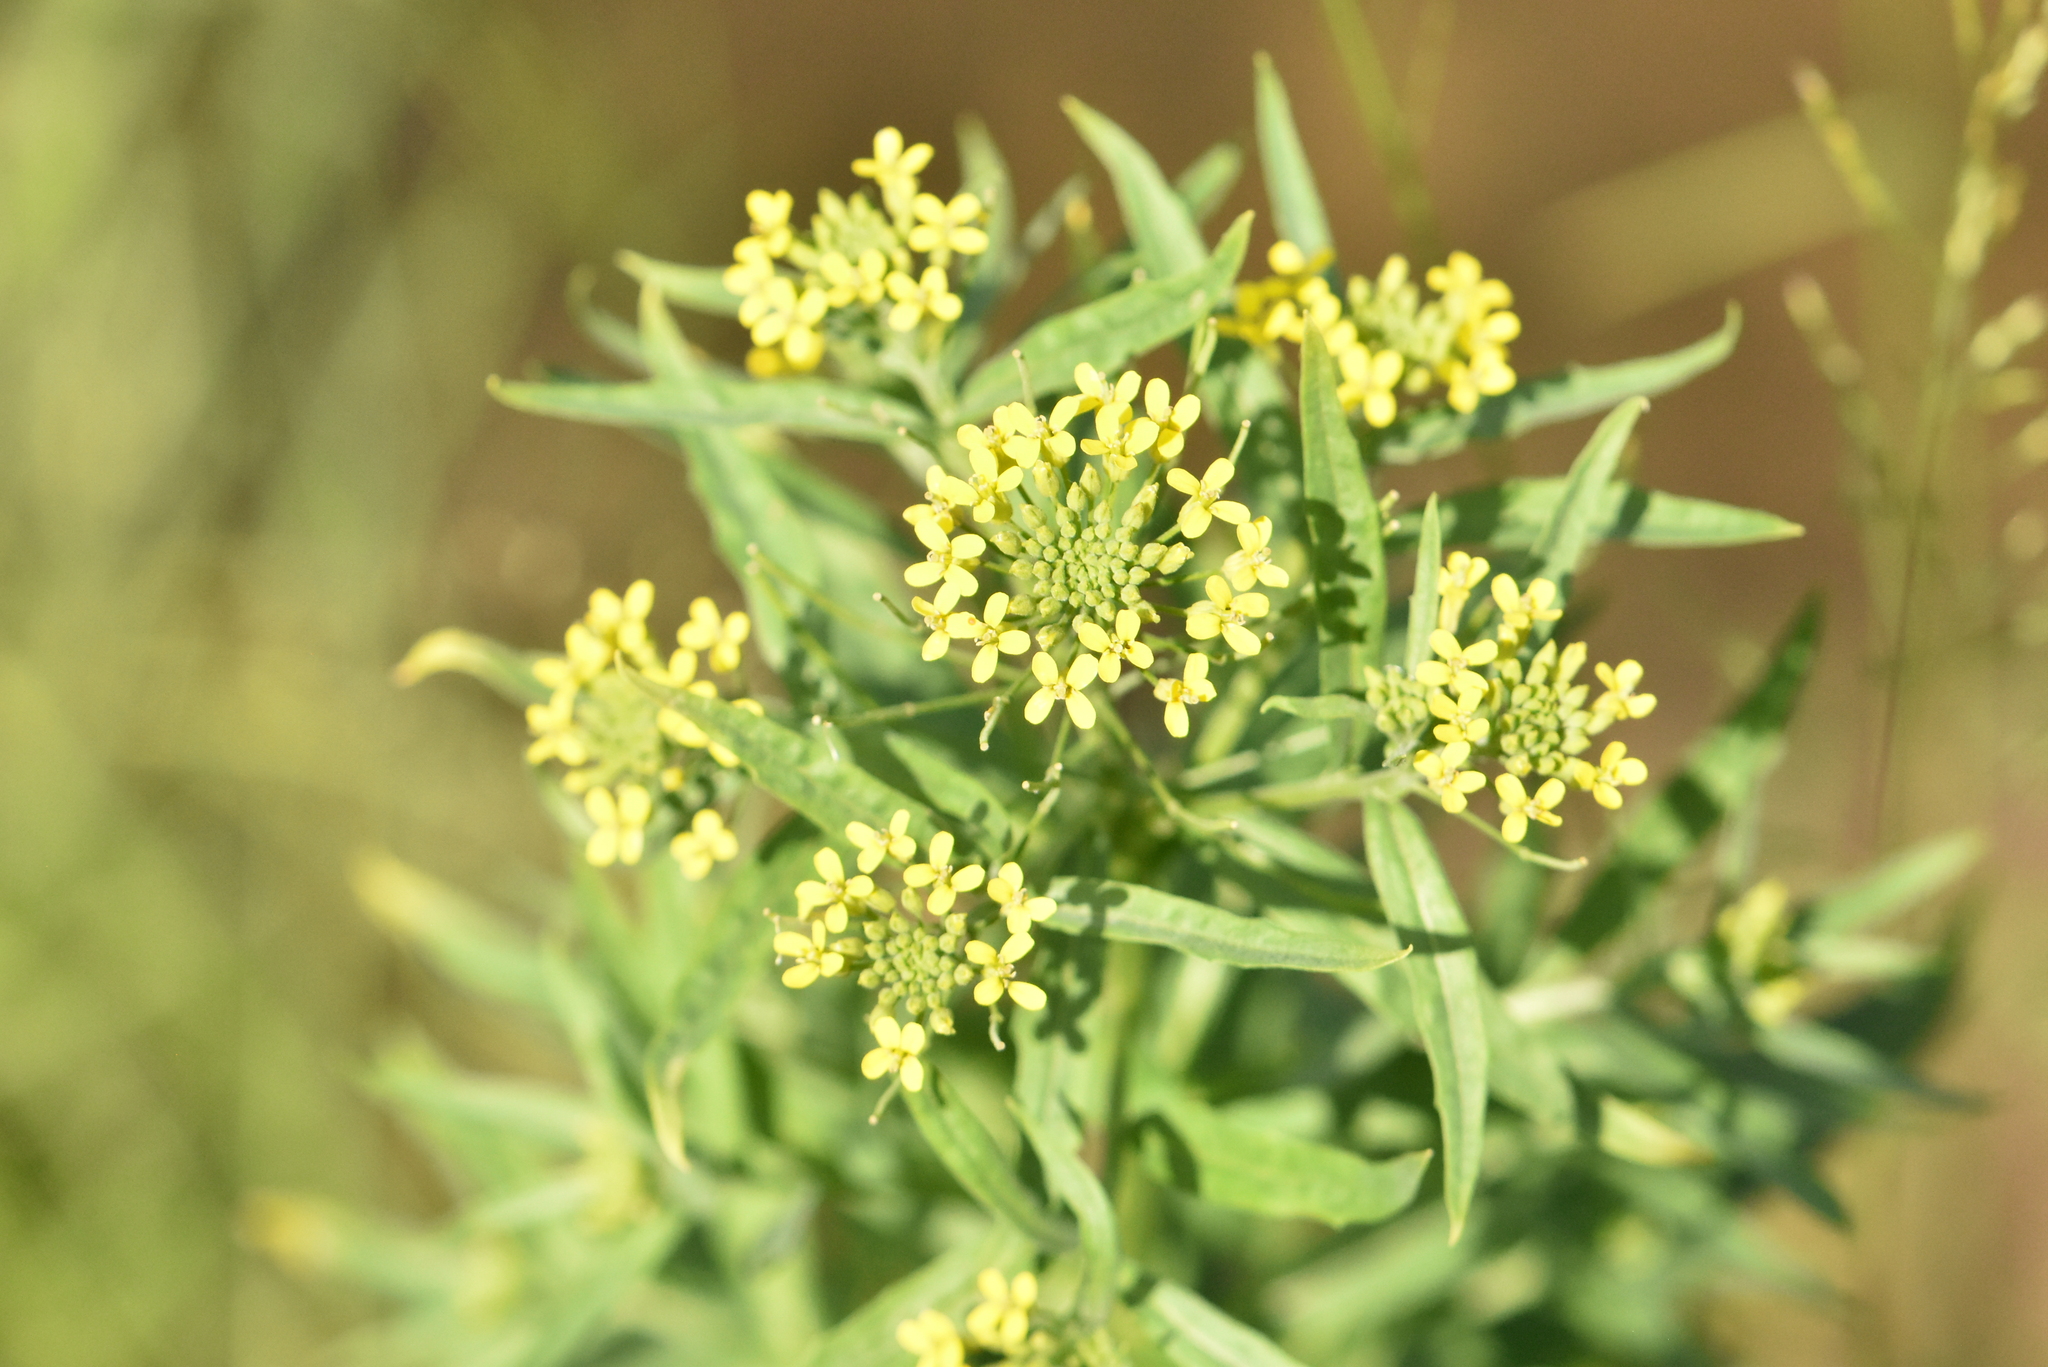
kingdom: Plantae
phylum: Tracheophyta
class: Magnoliopsida
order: Brassicales
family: Brassicaceae
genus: Erysimum
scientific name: Erysimum cheiranthoides
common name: Treacle mustard
